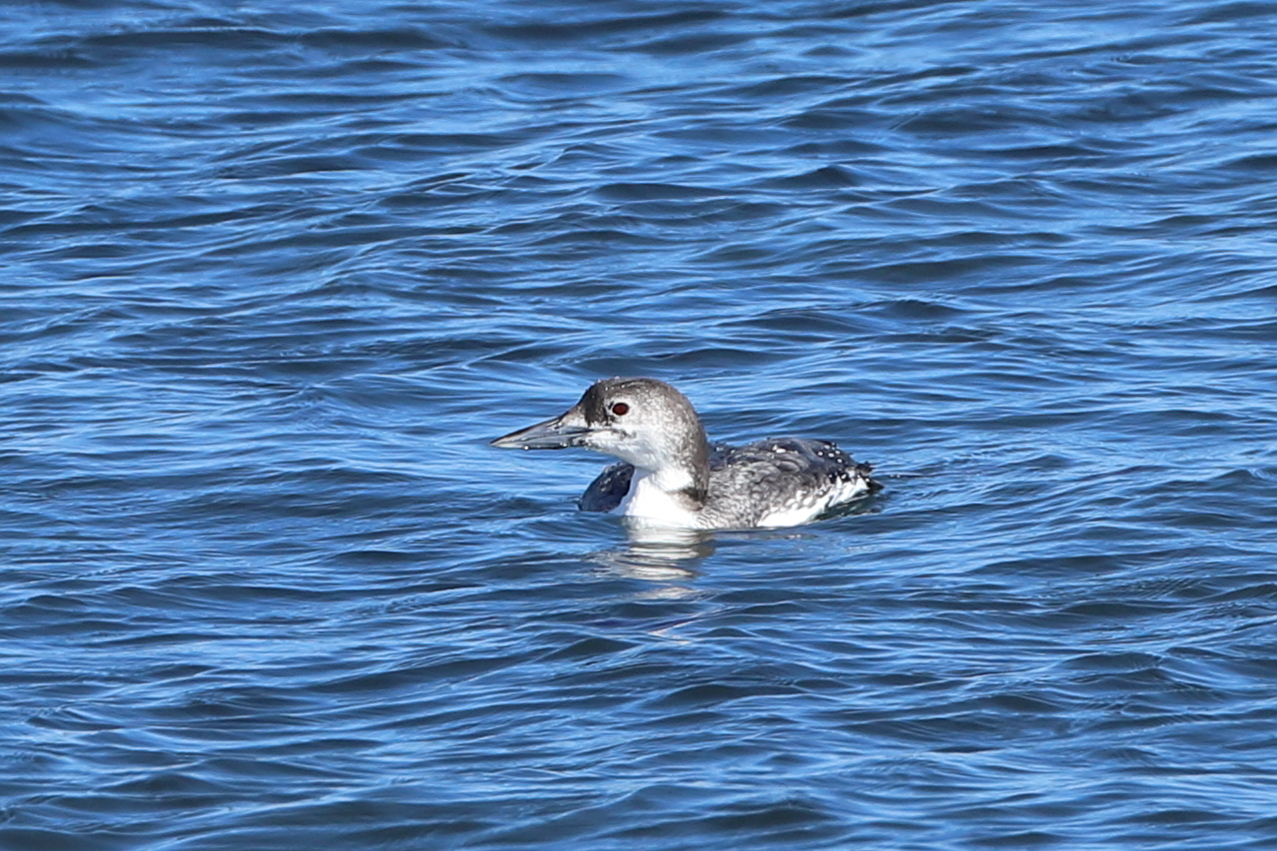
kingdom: Animalia
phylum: Chordata
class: Aves
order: Gaviiformes
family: Gaviidae
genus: Gavia
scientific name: Gavia immer
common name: Common loon
